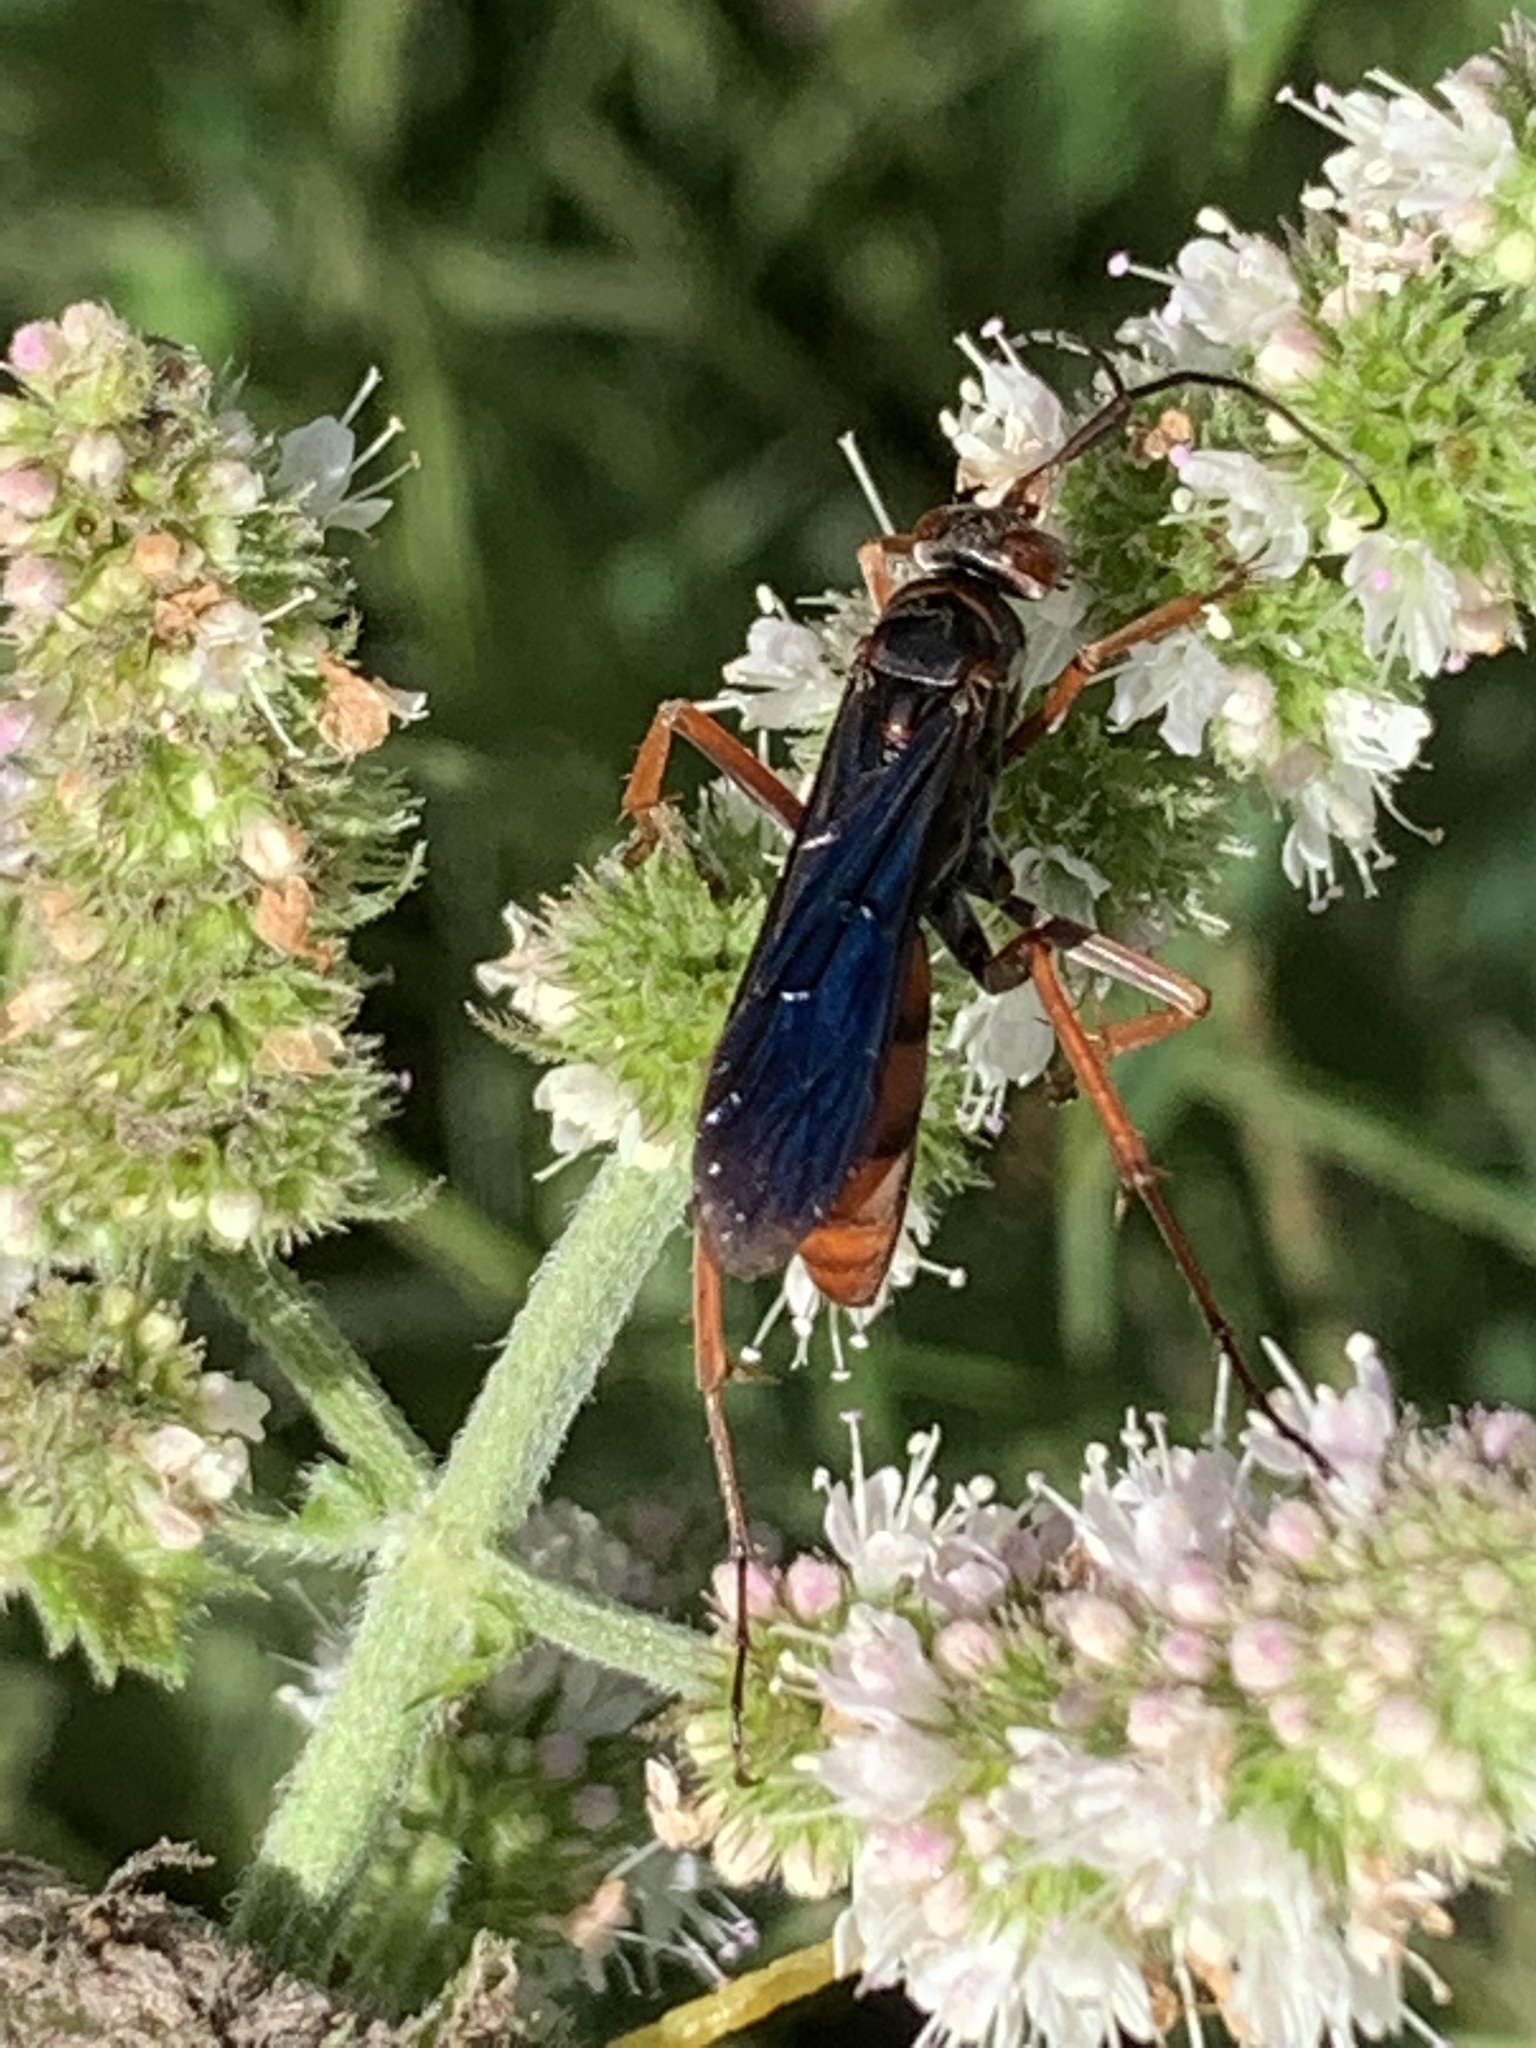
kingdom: Animalia
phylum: Arthropoda
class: Insecta
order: Hymenoptera
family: Pompilidae
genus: Tachypompilus
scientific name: Tachypompilus ferrugineus
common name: Rusty spider wasp
